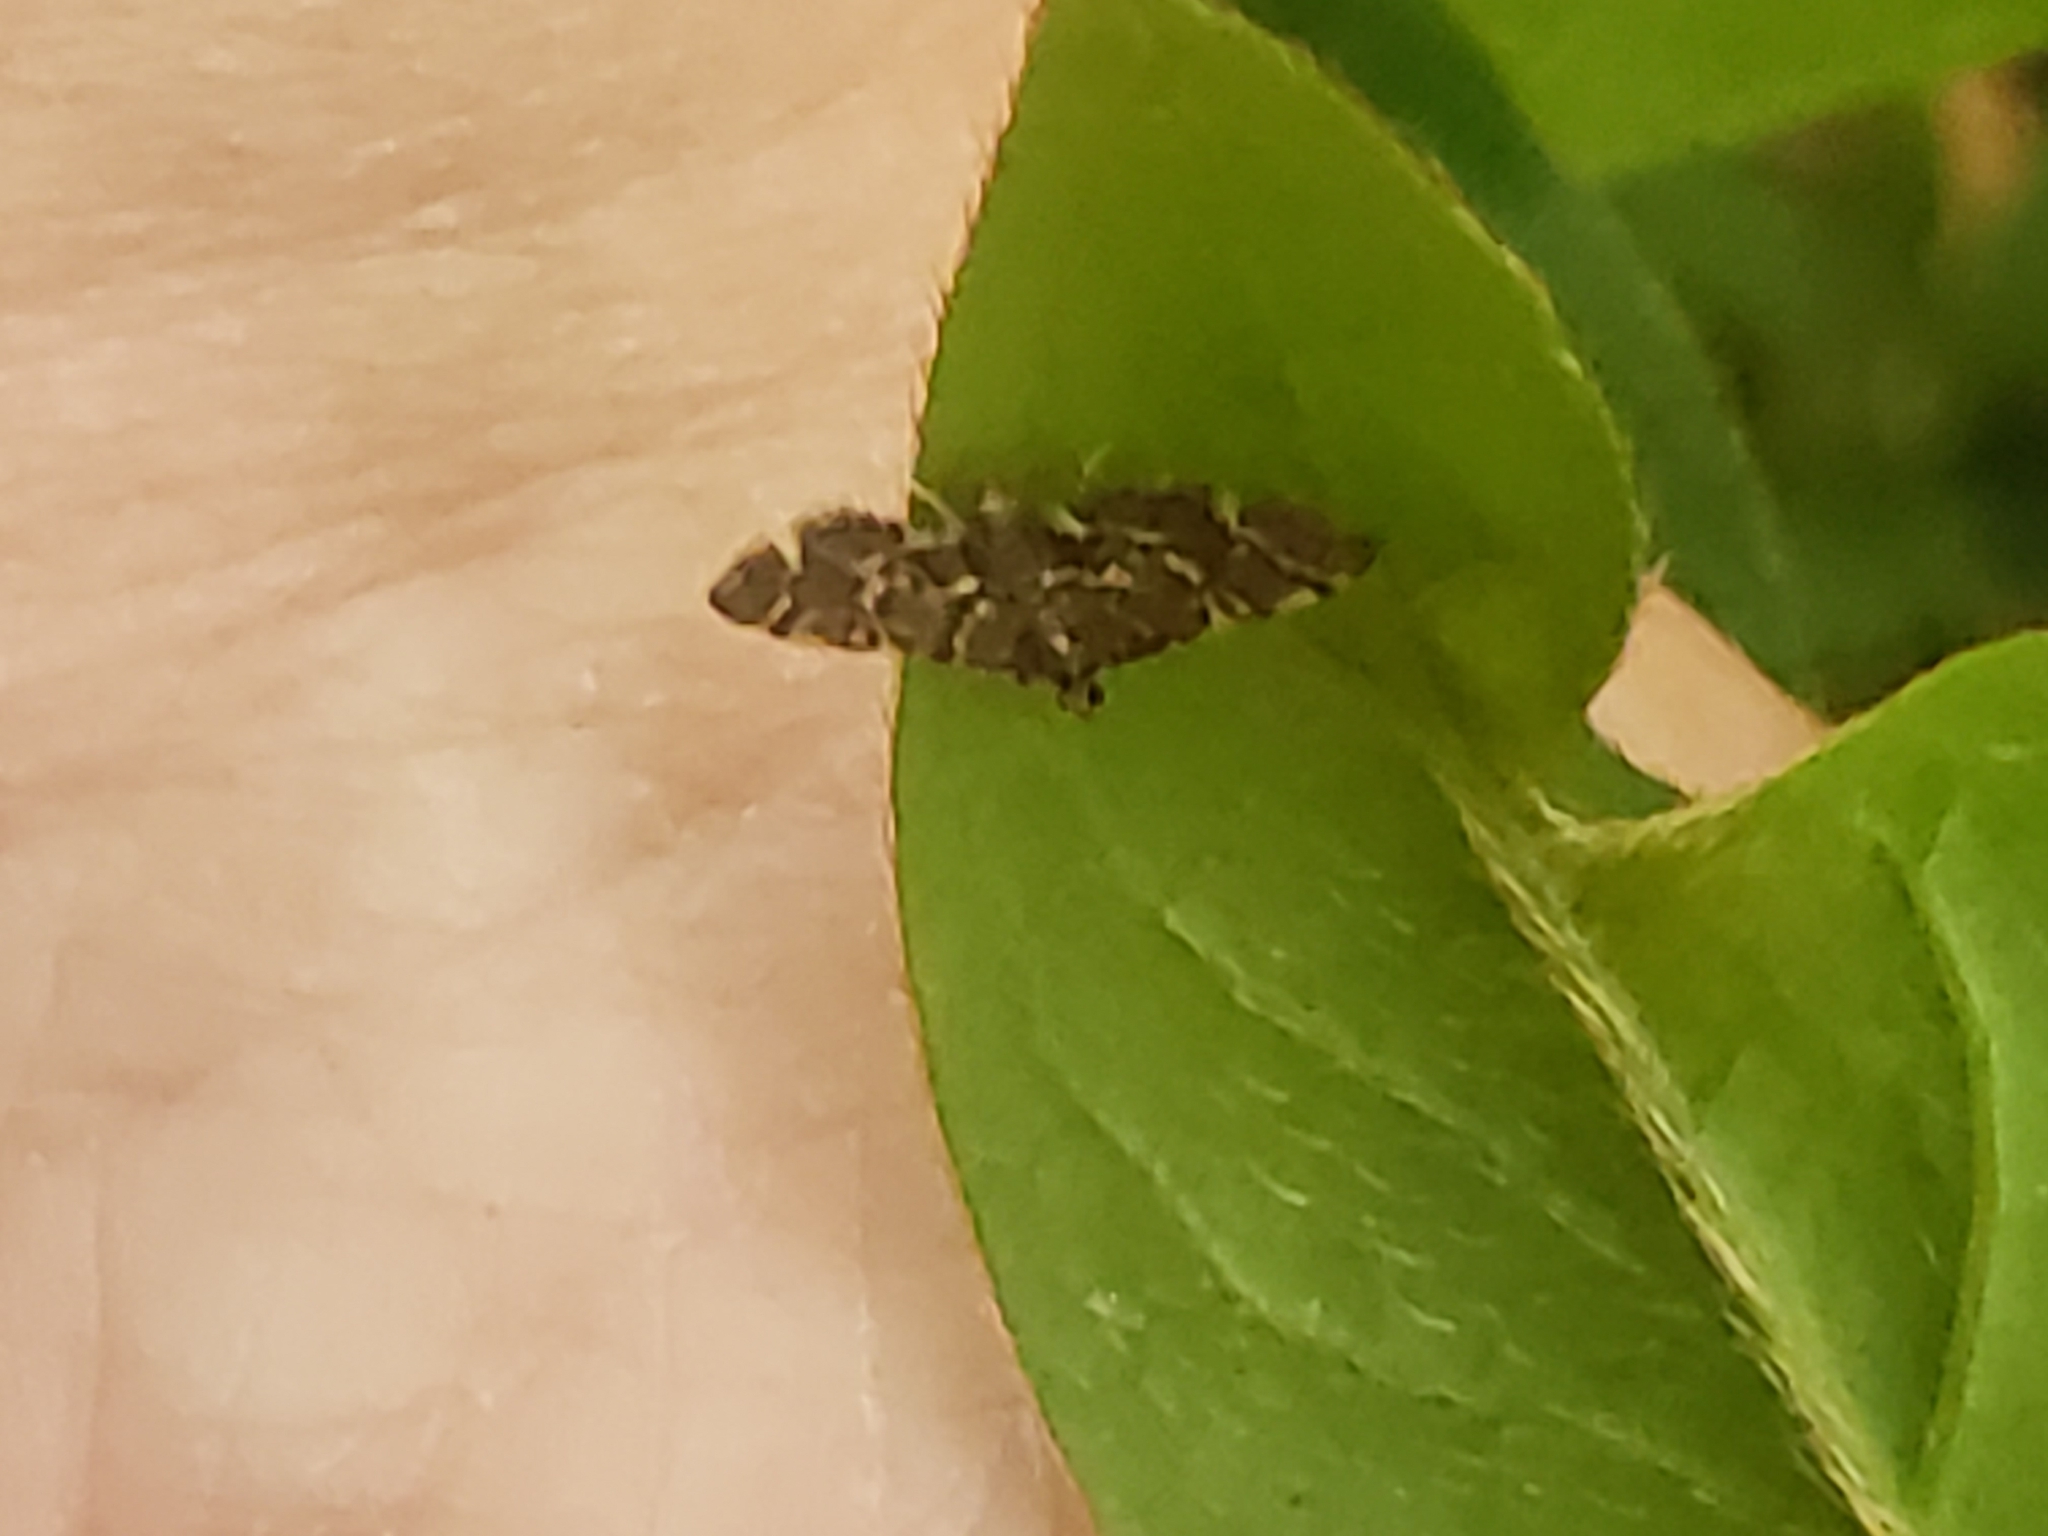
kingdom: Animalia
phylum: Arthropoda
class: Insecta
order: Lepidoptera
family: Crambidae
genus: Anageshna
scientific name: Anageshna primordialis
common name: Yellow-spotted webworm moth
